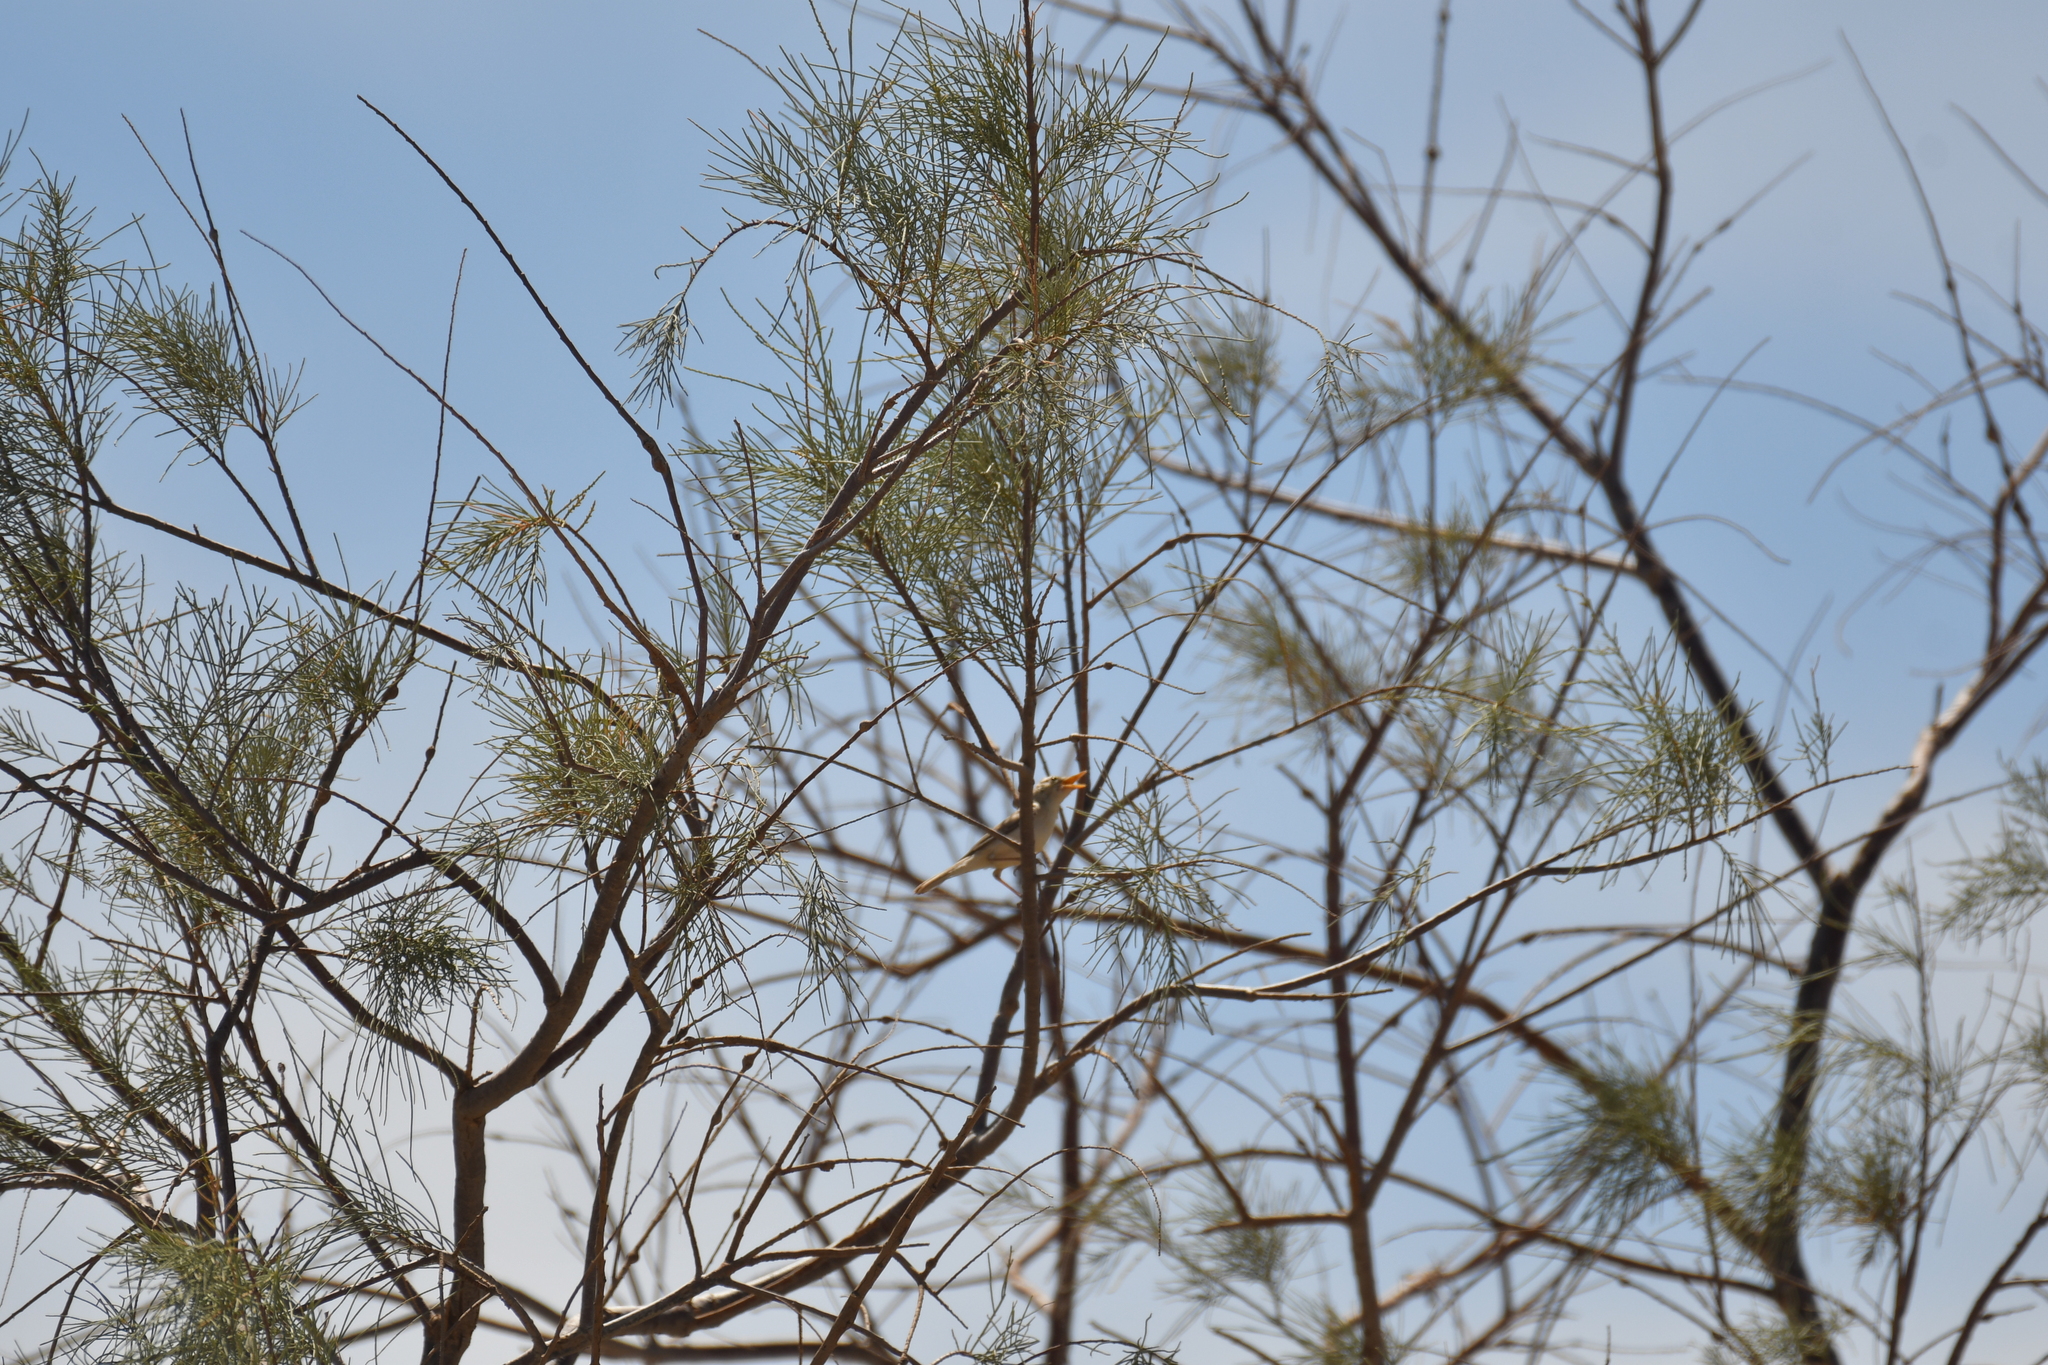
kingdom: Animalia
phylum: Chordata
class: Aves
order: Passeriformes
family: Acrocephalidae
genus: Iduna
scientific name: Iduna opaca
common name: Western olivaceous warbler
